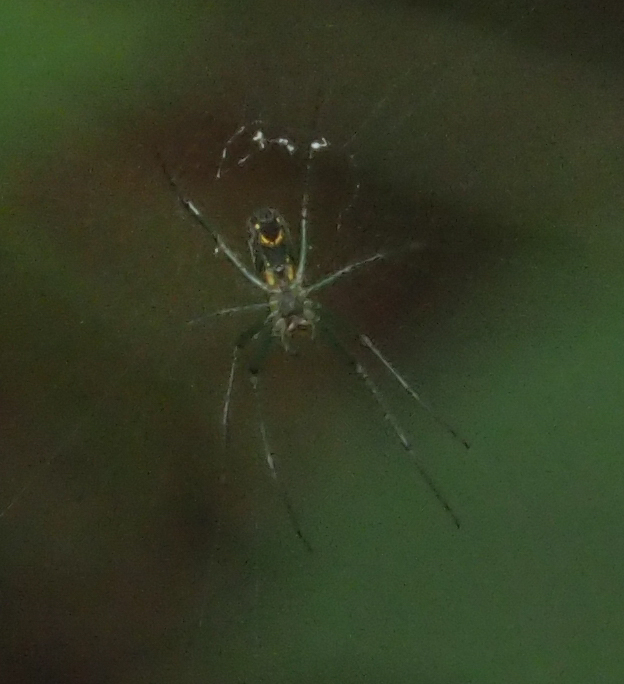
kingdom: Animalia
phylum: Arthropoda
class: Arachnida
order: Araneae
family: Tetragnathidae
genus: Leucauge
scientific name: Leucauge venusta
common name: Longjawed orb weavers
